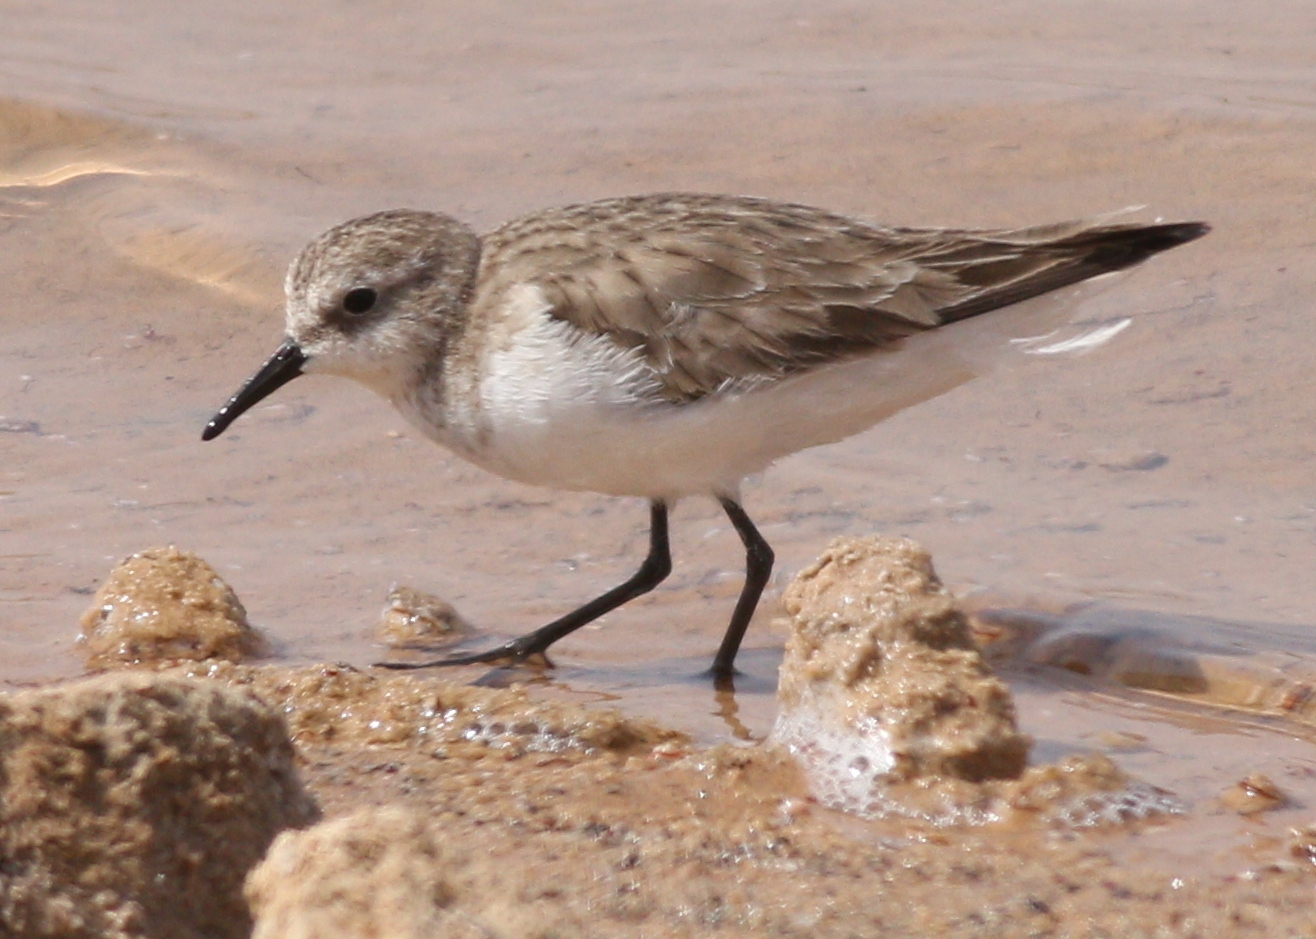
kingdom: Animalia
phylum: Chordata
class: Aves
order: Charadriiformes
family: Scolopacidae
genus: Calidris
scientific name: Calidris minuta
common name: Little stint
